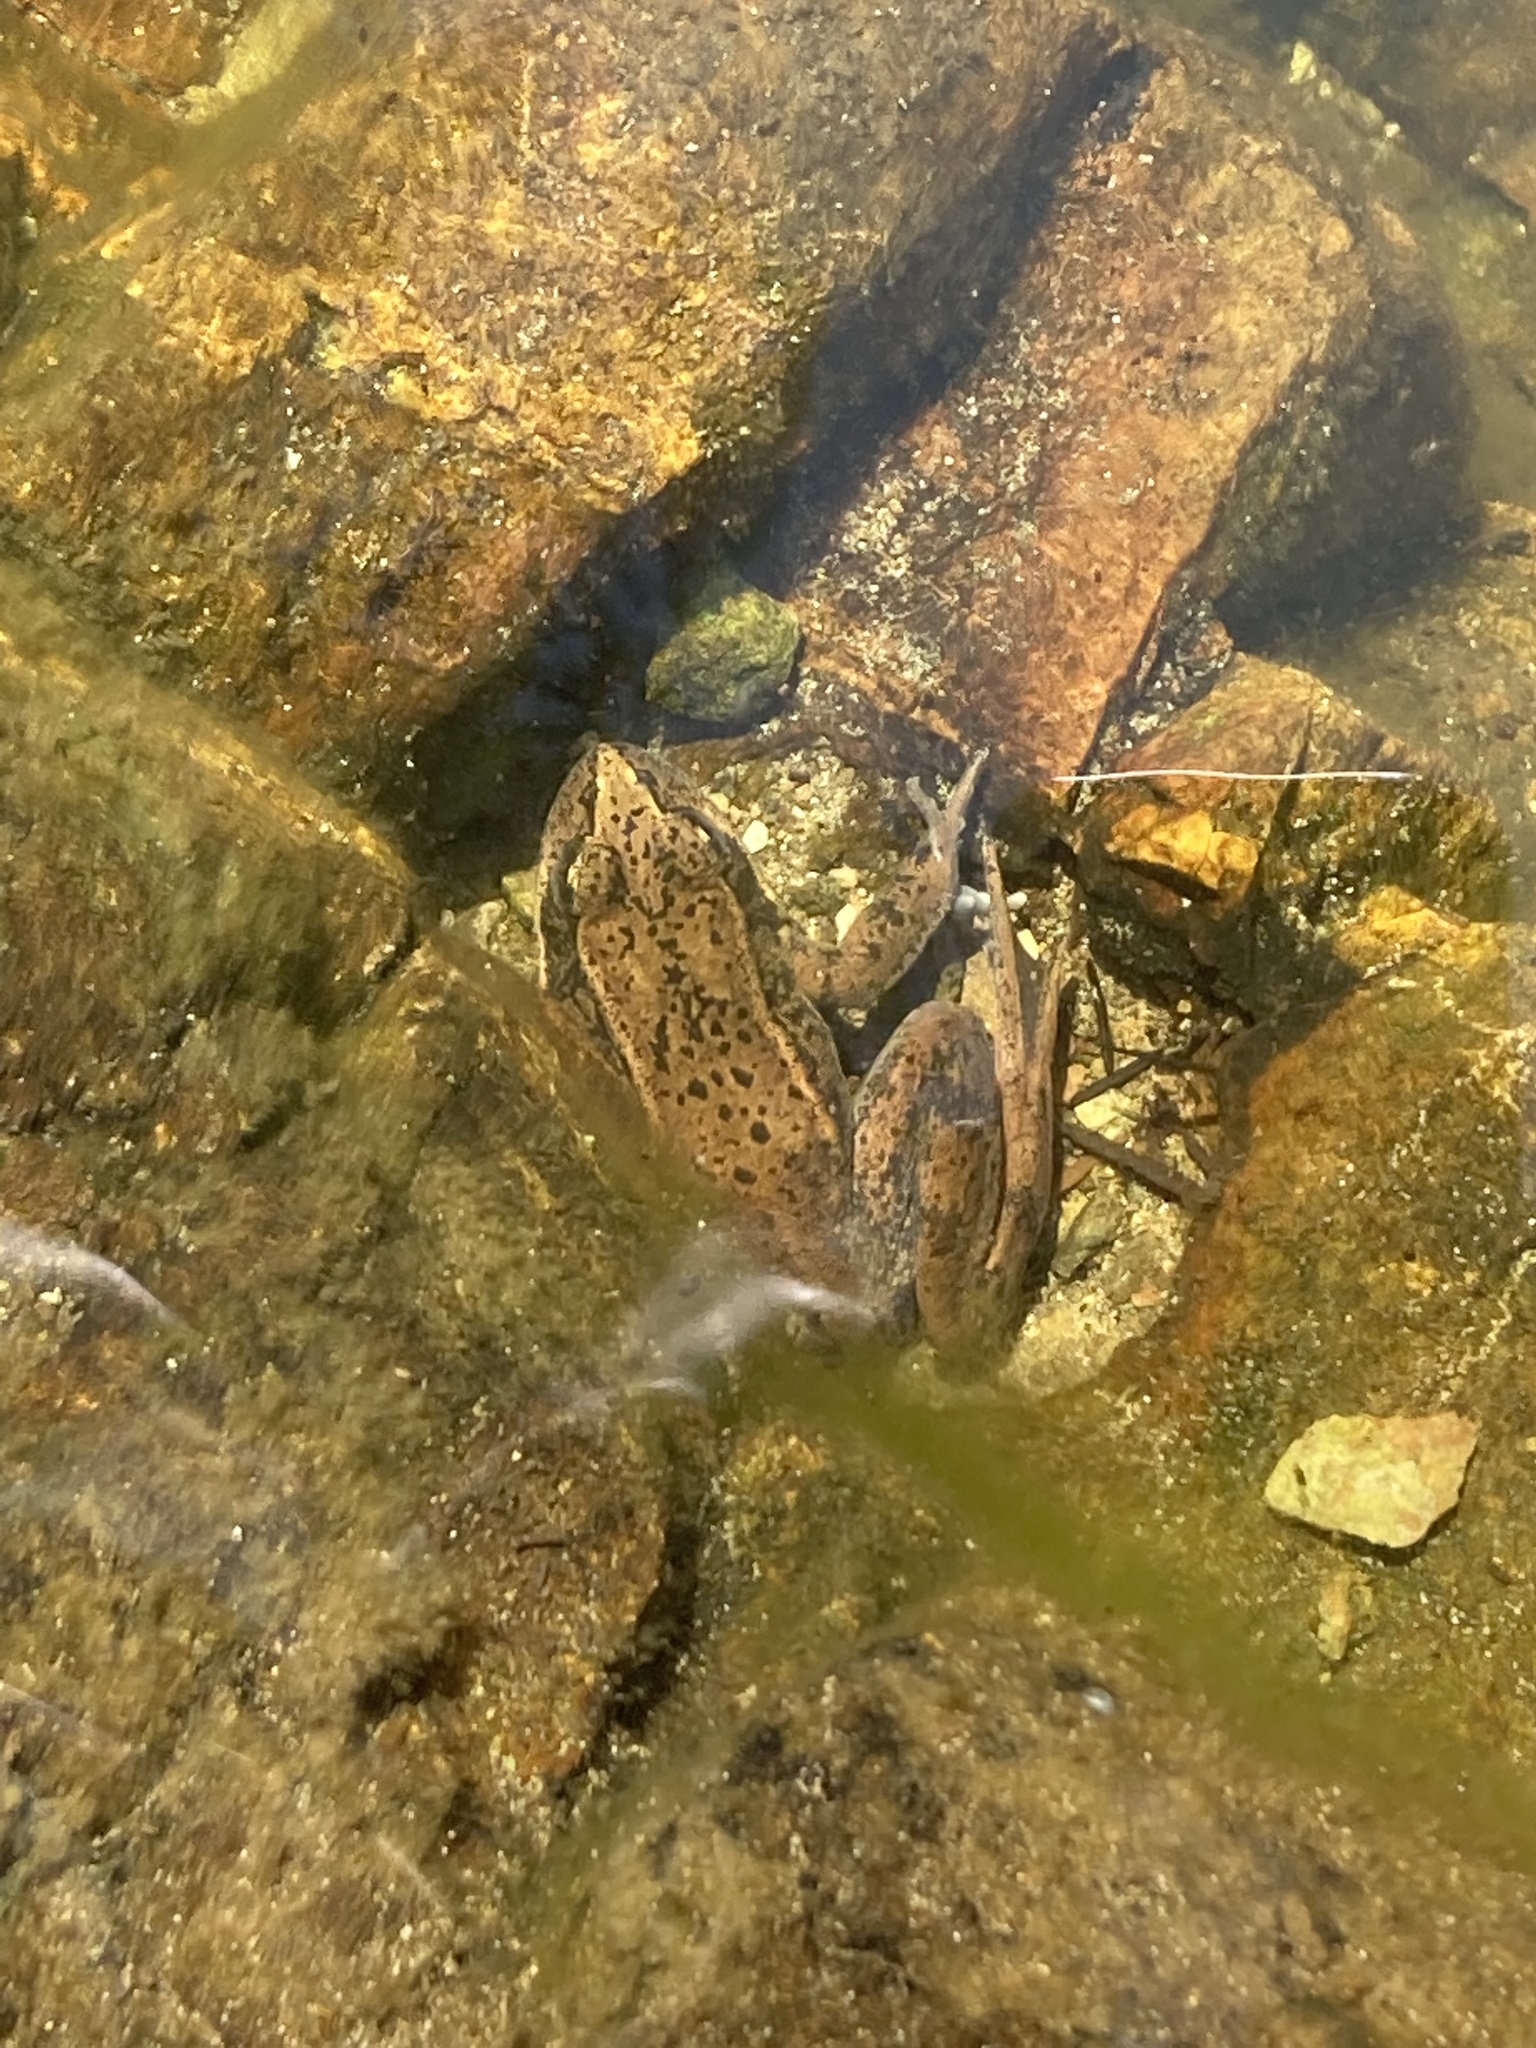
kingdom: Animalia
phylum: Chordata
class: Amphibia
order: Anura
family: Ranidae
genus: Rana
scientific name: Rana aurora
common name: Red-legged frog
